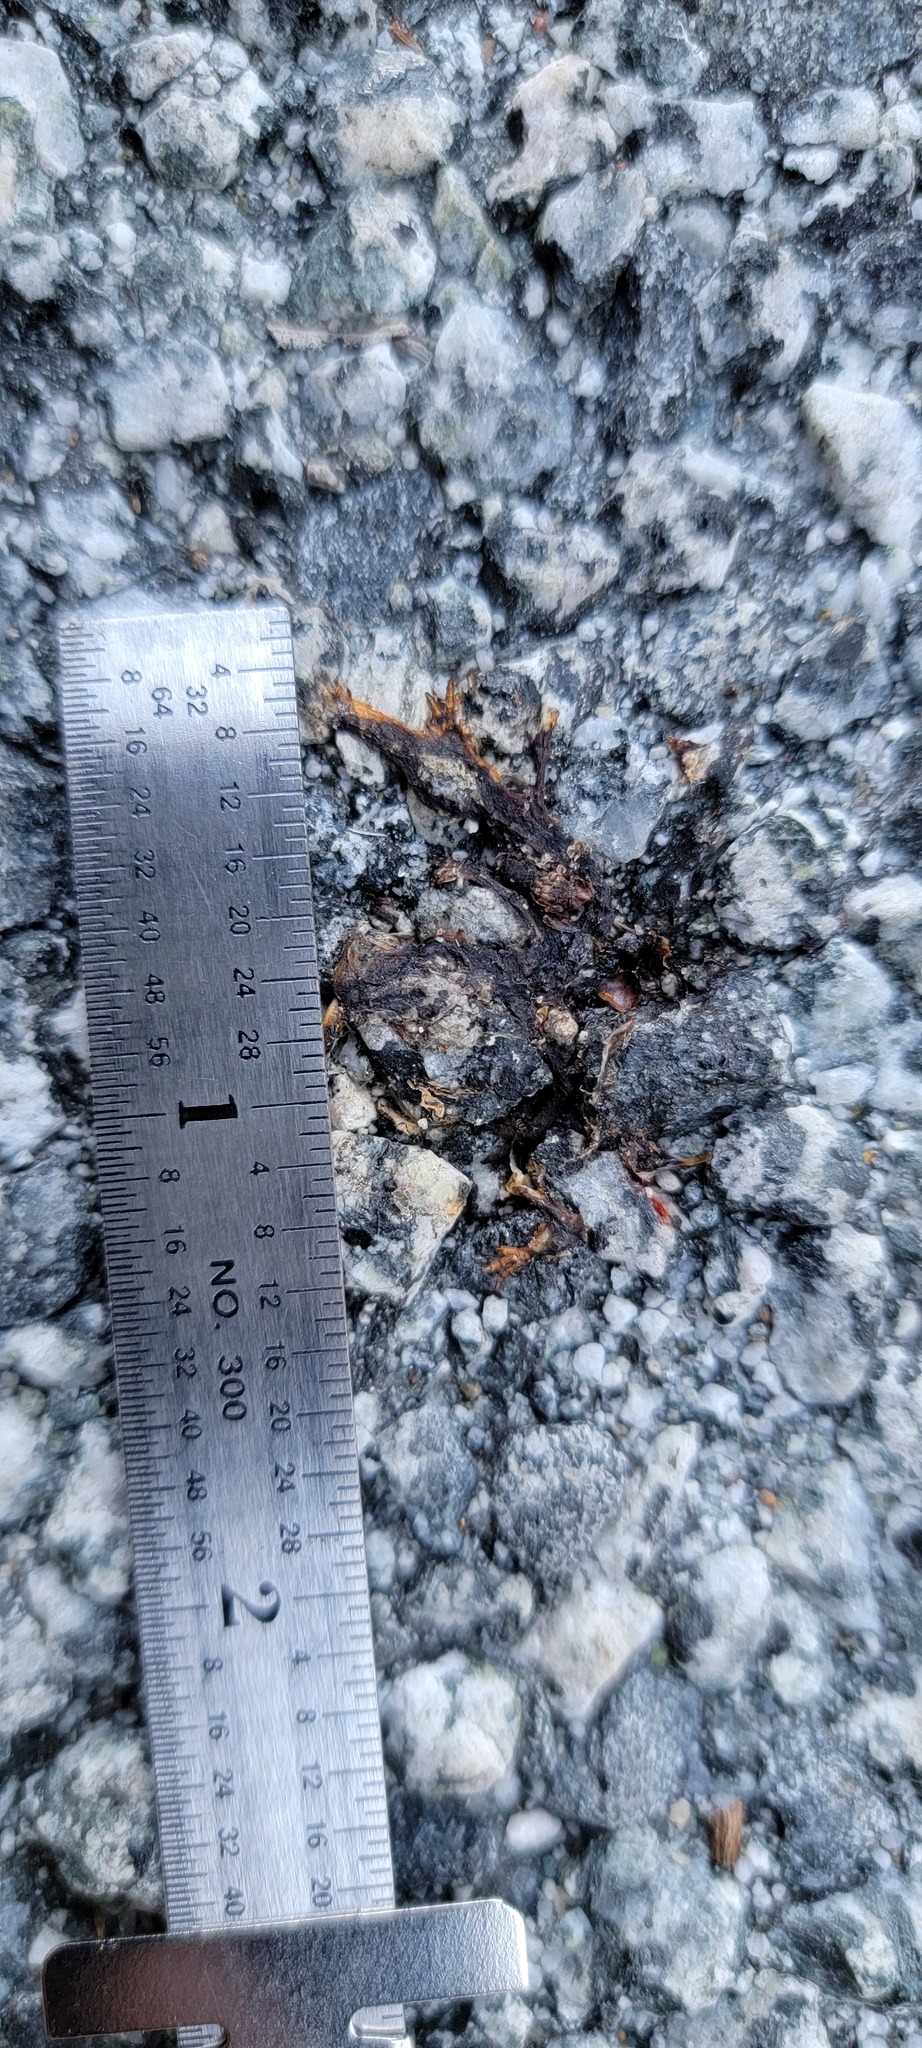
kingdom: Animalia
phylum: Chordata
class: Amphibia
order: Caudata
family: Salamandridae
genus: Taricha
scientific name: Taricha
